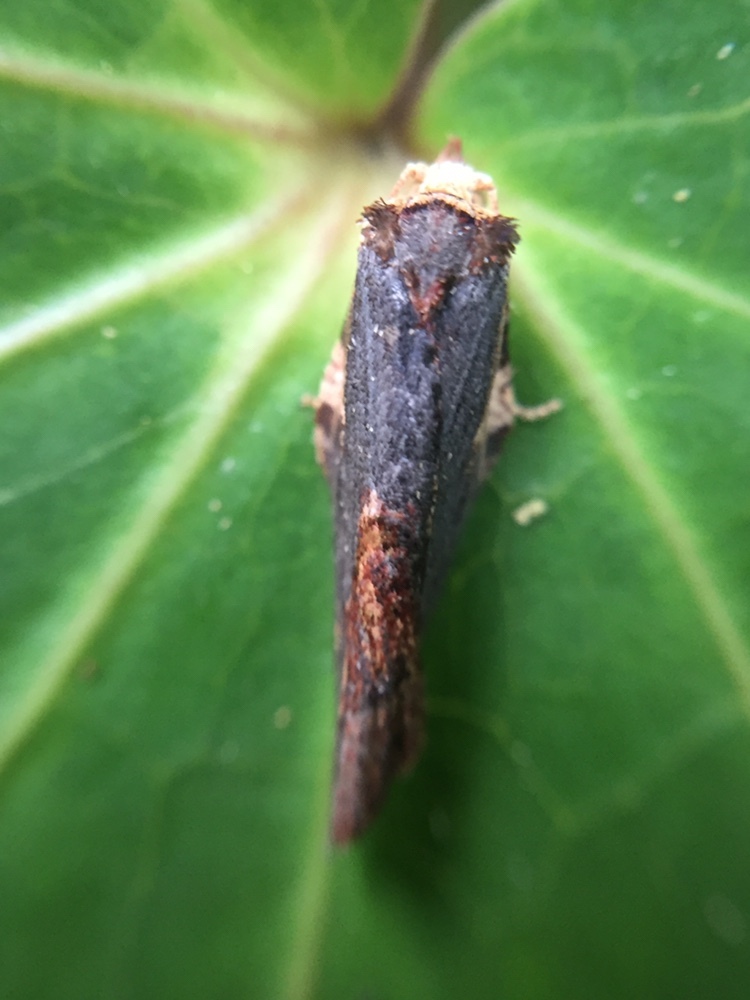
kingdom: Animalia
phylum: Arthropoda
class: Insecta
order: Lepidoptera
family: Tortricidae
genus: Epalxiphora
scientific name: Epalxiphora axenana
